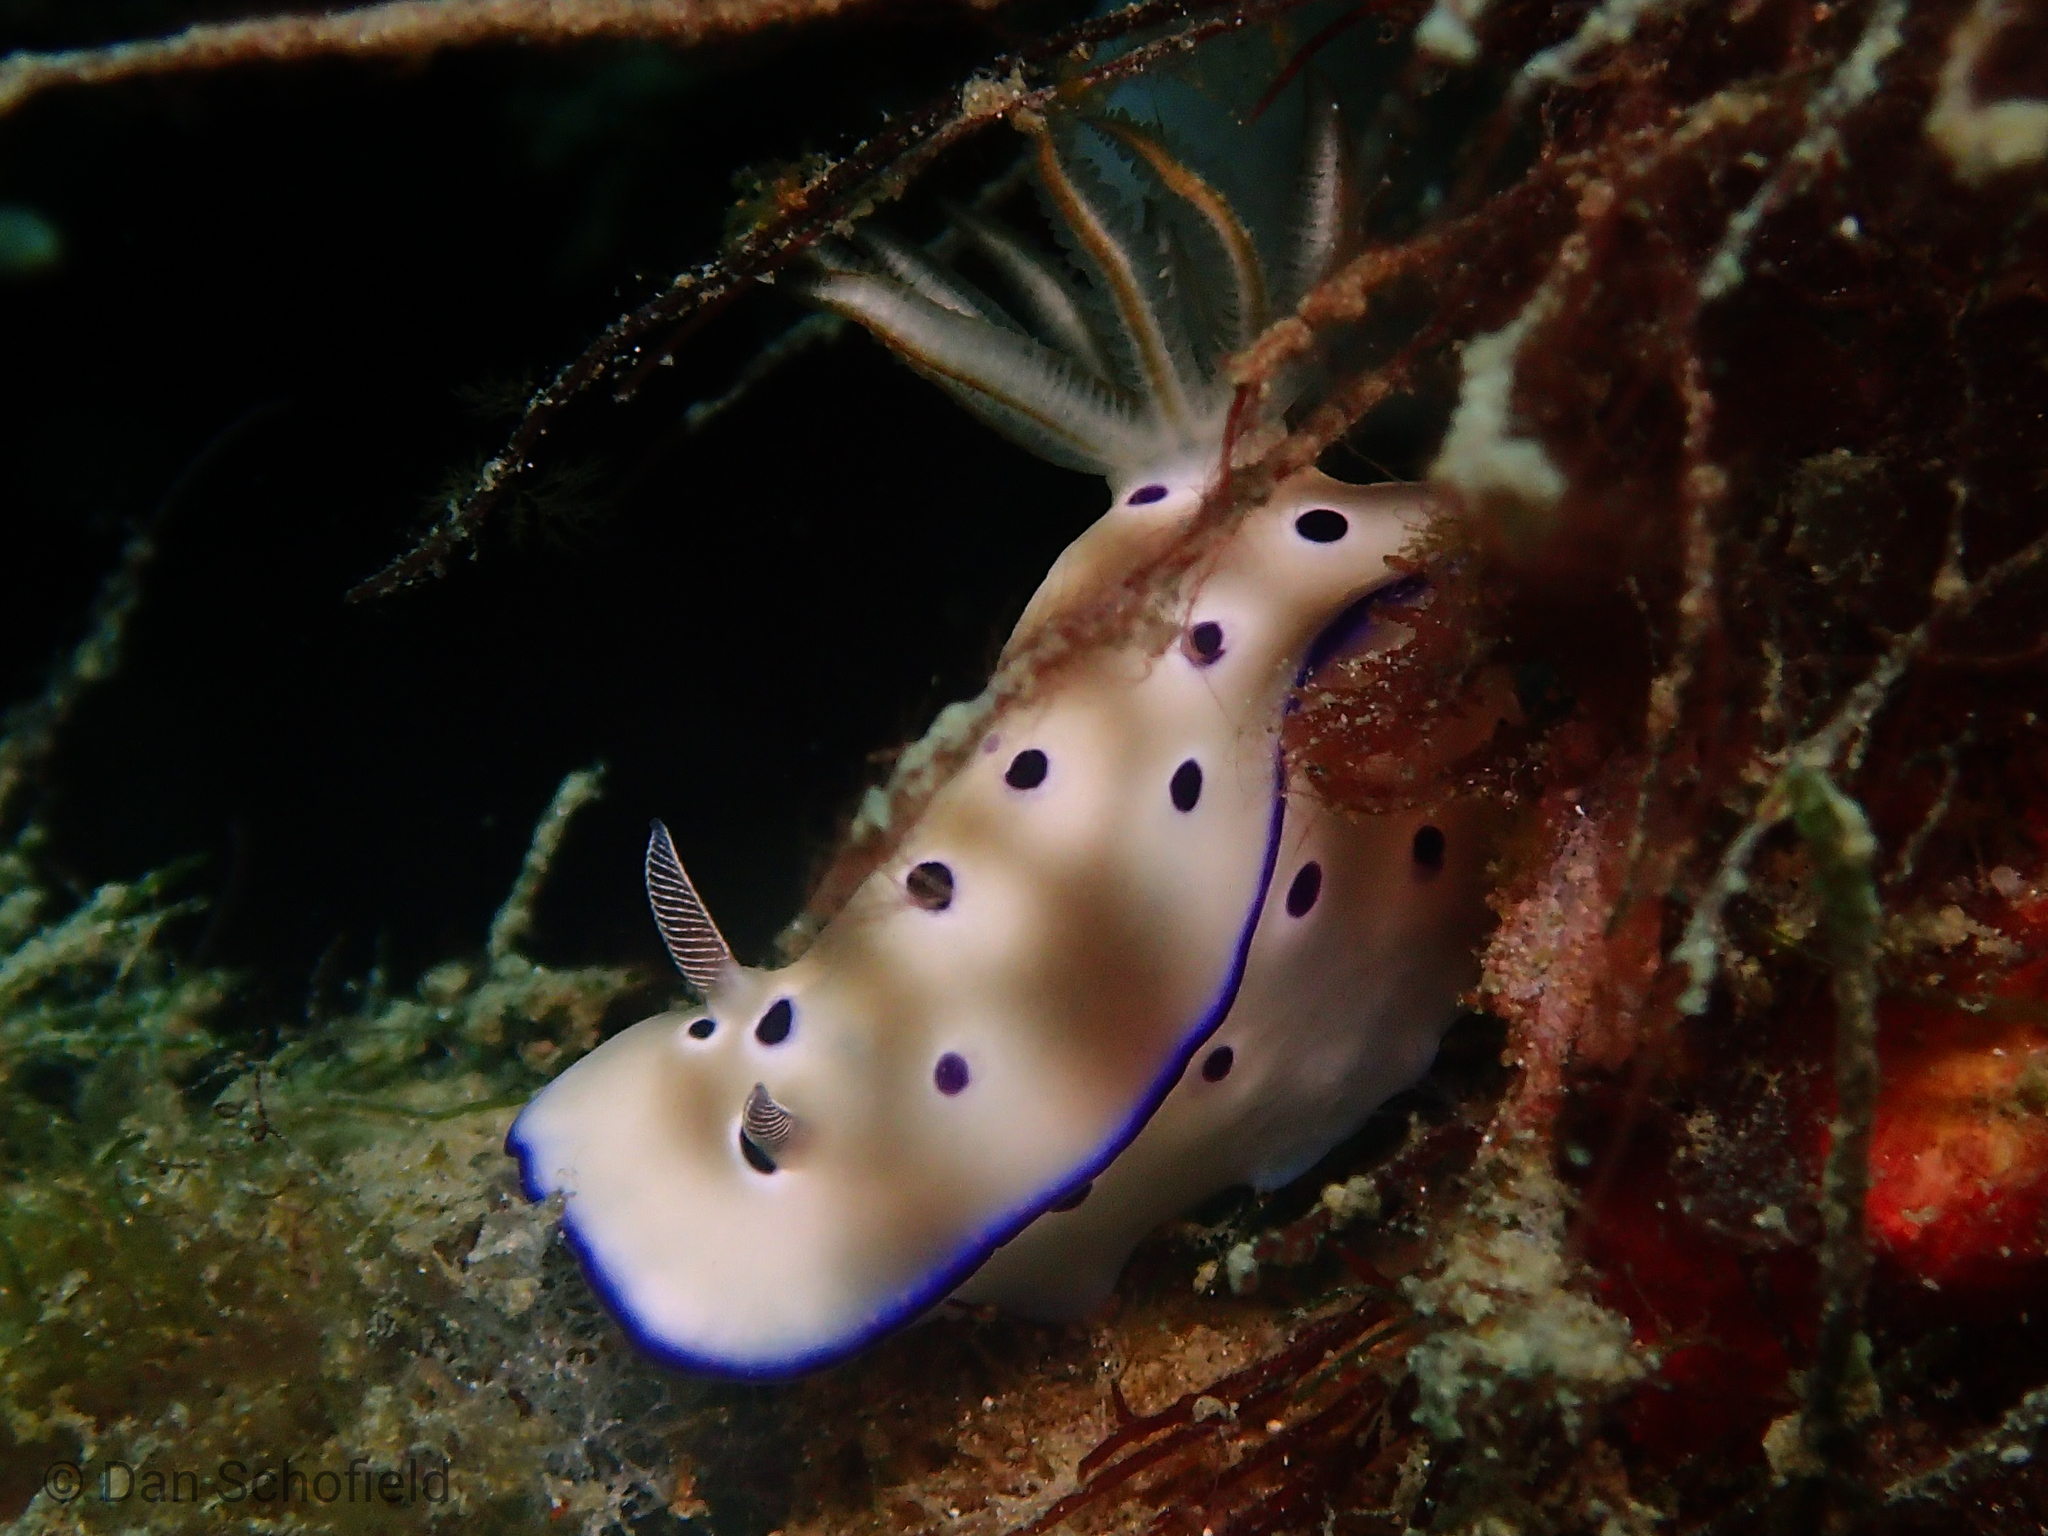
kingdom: Animalia
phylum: Mollusca
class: Gastropoda
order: Nudibranchia
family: Chromodorididae
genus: Hypselodoris
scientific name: Hypselodoris tryoni
